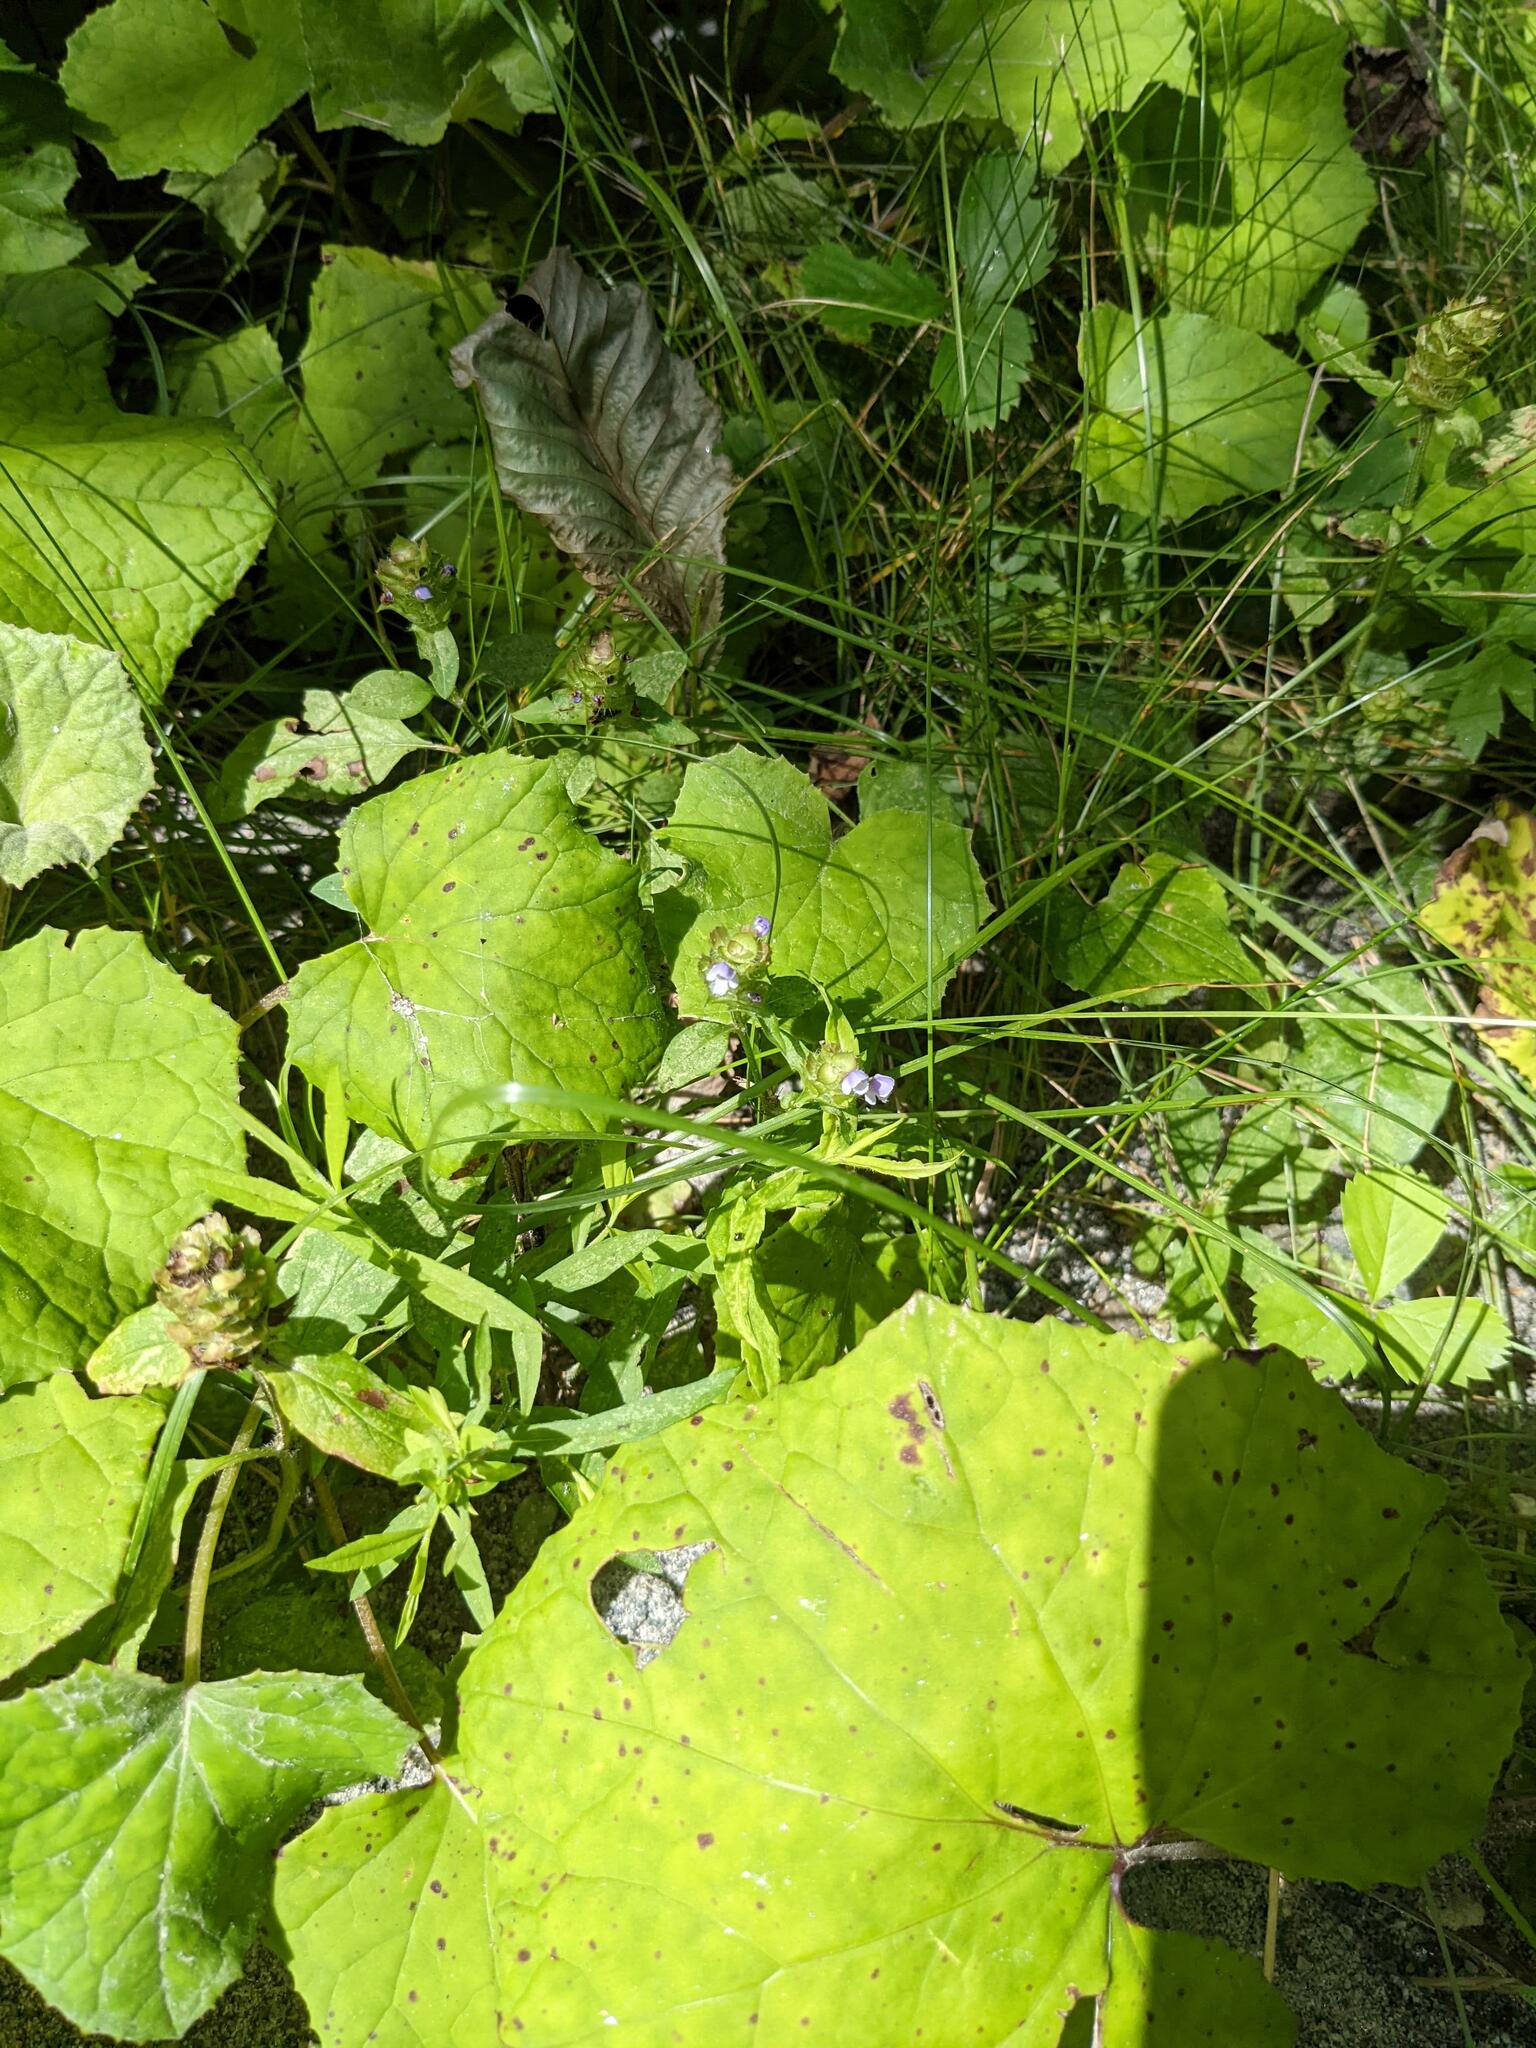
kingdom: Plantae
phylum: Tracheophyta
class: Magnoliopsida
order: Lamiales
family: Lamiaceae
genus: Prunella
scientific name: Prunella vulgaris
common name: Heal-all
